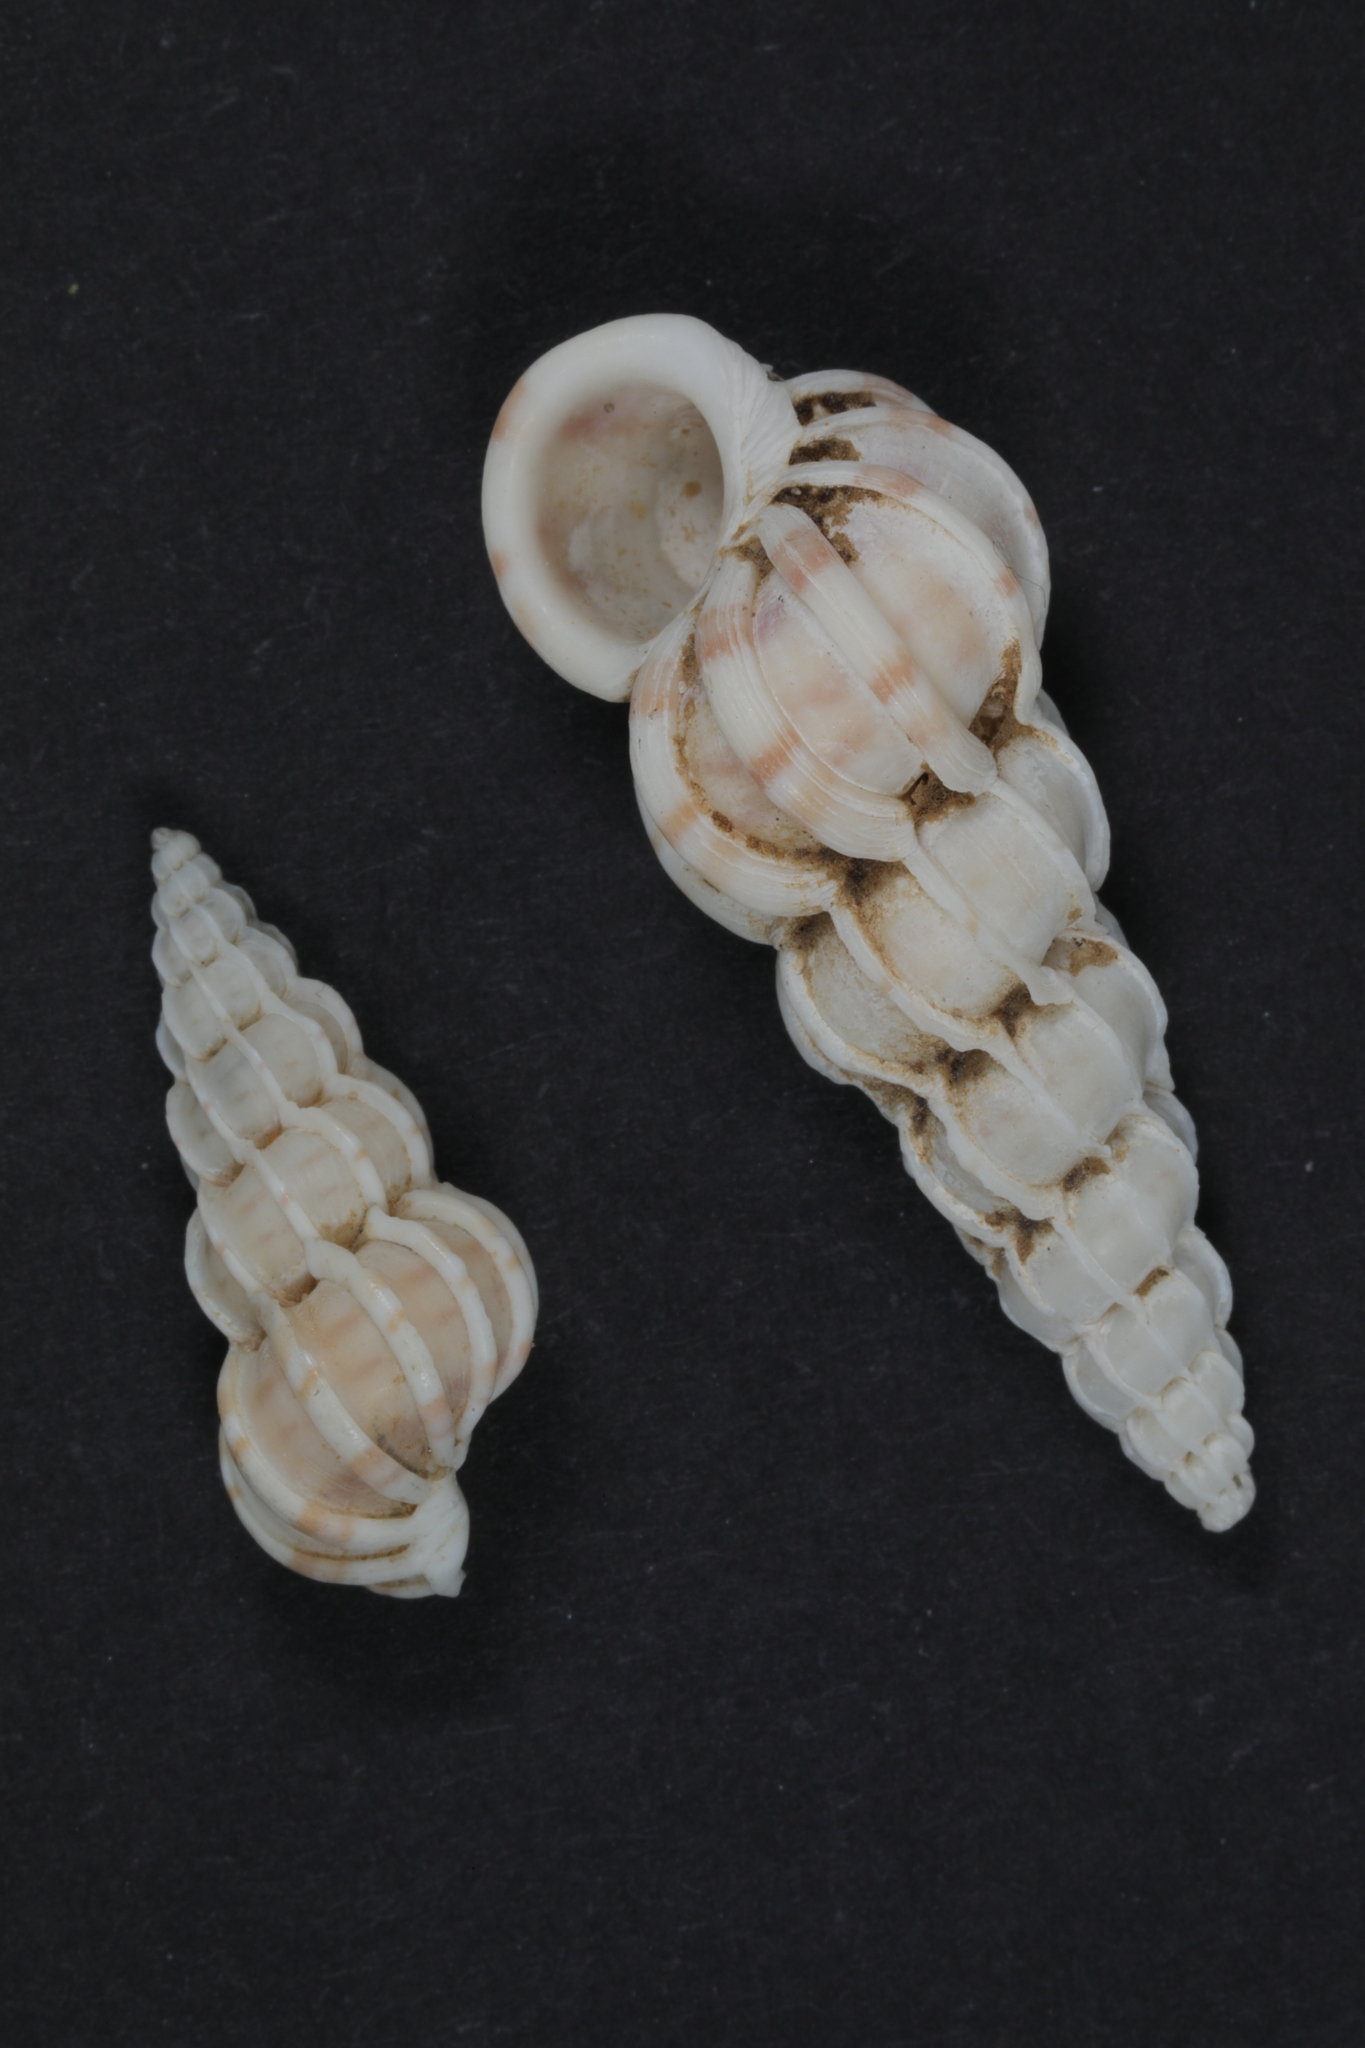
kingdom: Animalia
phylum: Mollusca
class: Gastropoda
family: Epitoniidae
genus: Epitonium
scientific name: Epitonium clathrus
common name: Common wentletrap
